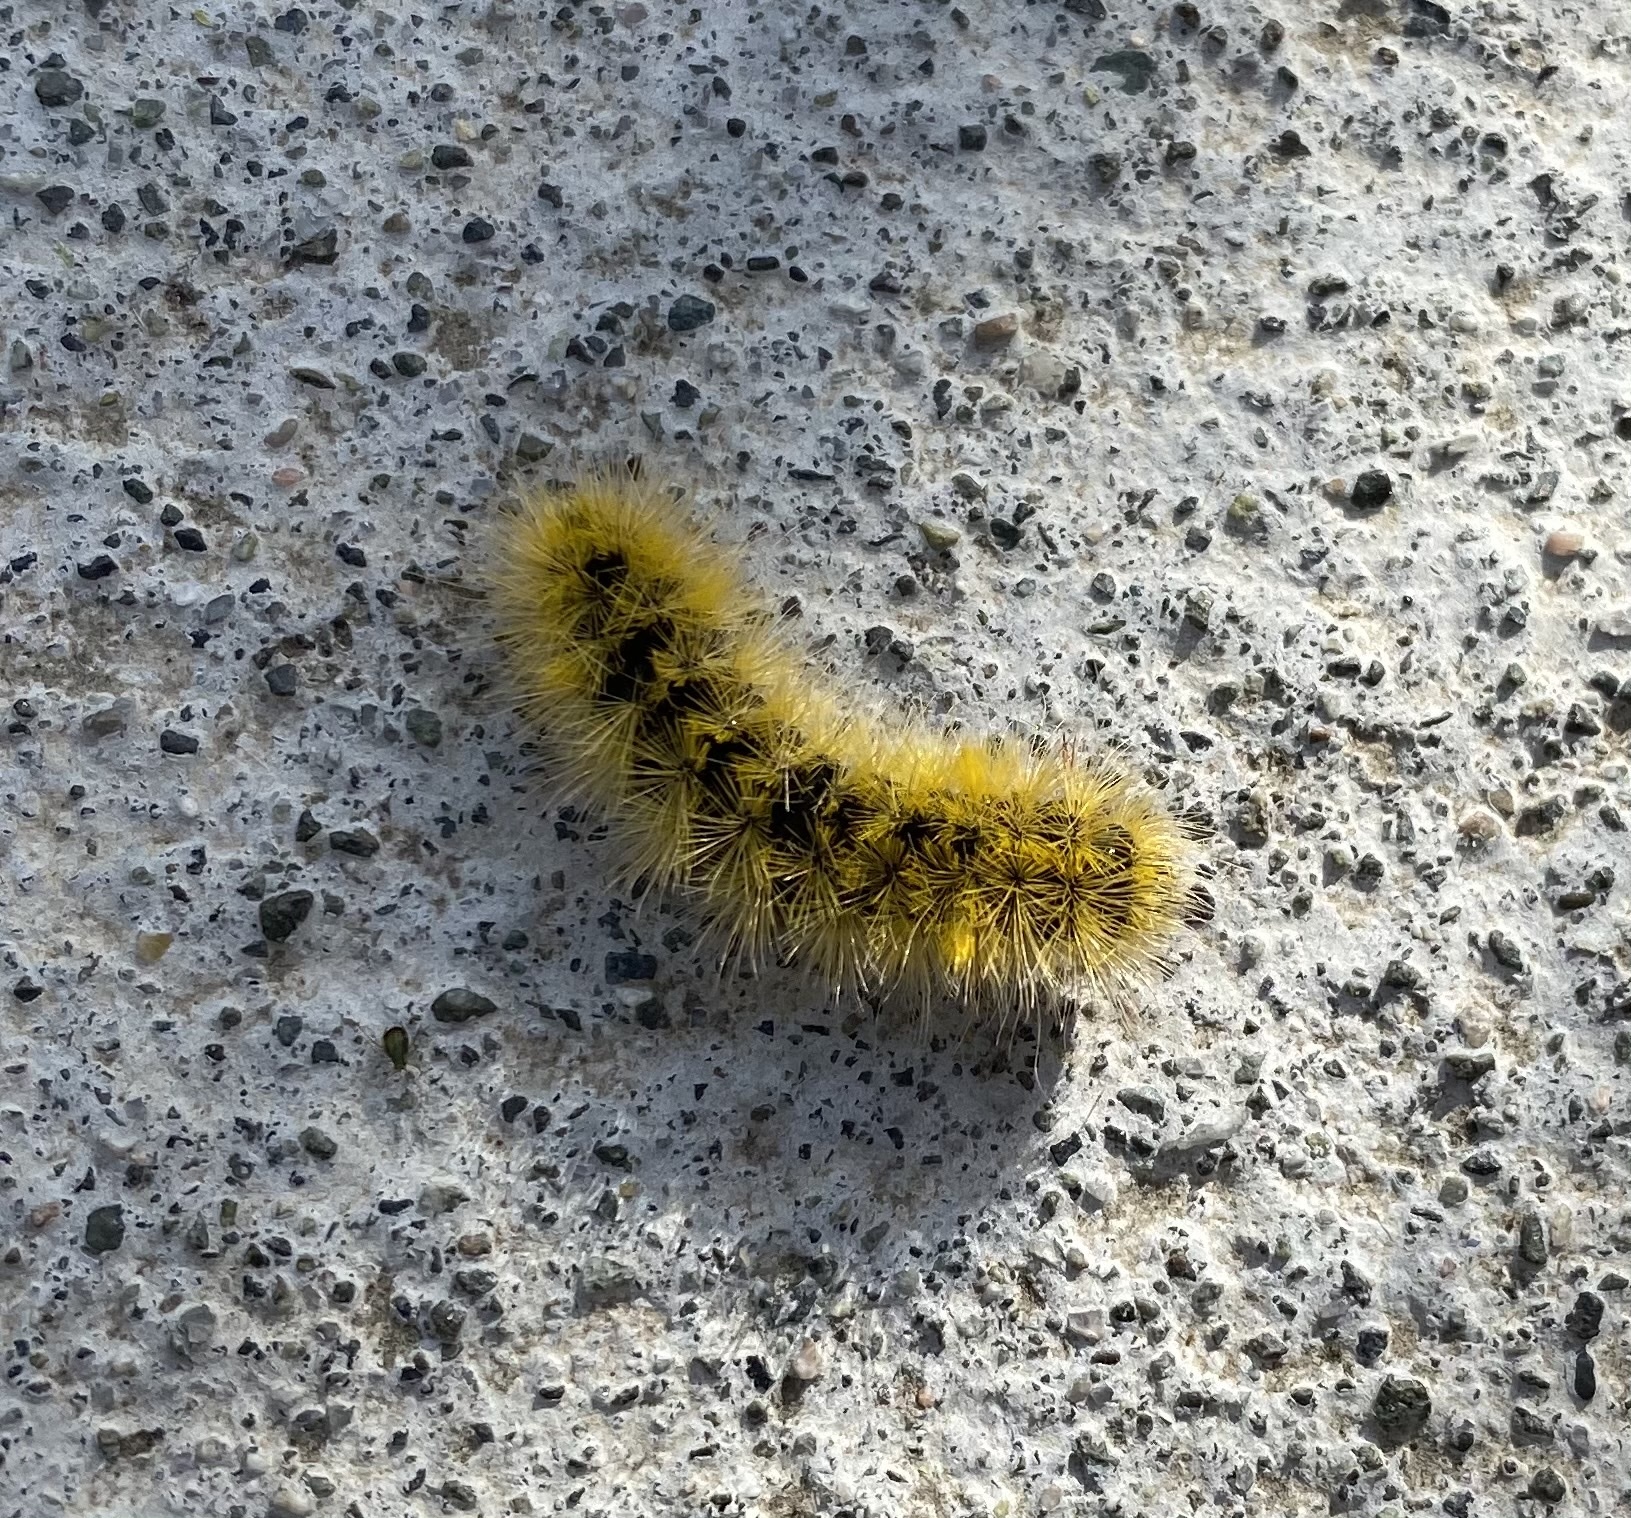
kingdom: Animalia
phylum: Arthropoda
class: Insecta
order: Lepidoptera
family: Erebidae
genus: Lophocampa
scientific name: Lophocampa argentata
